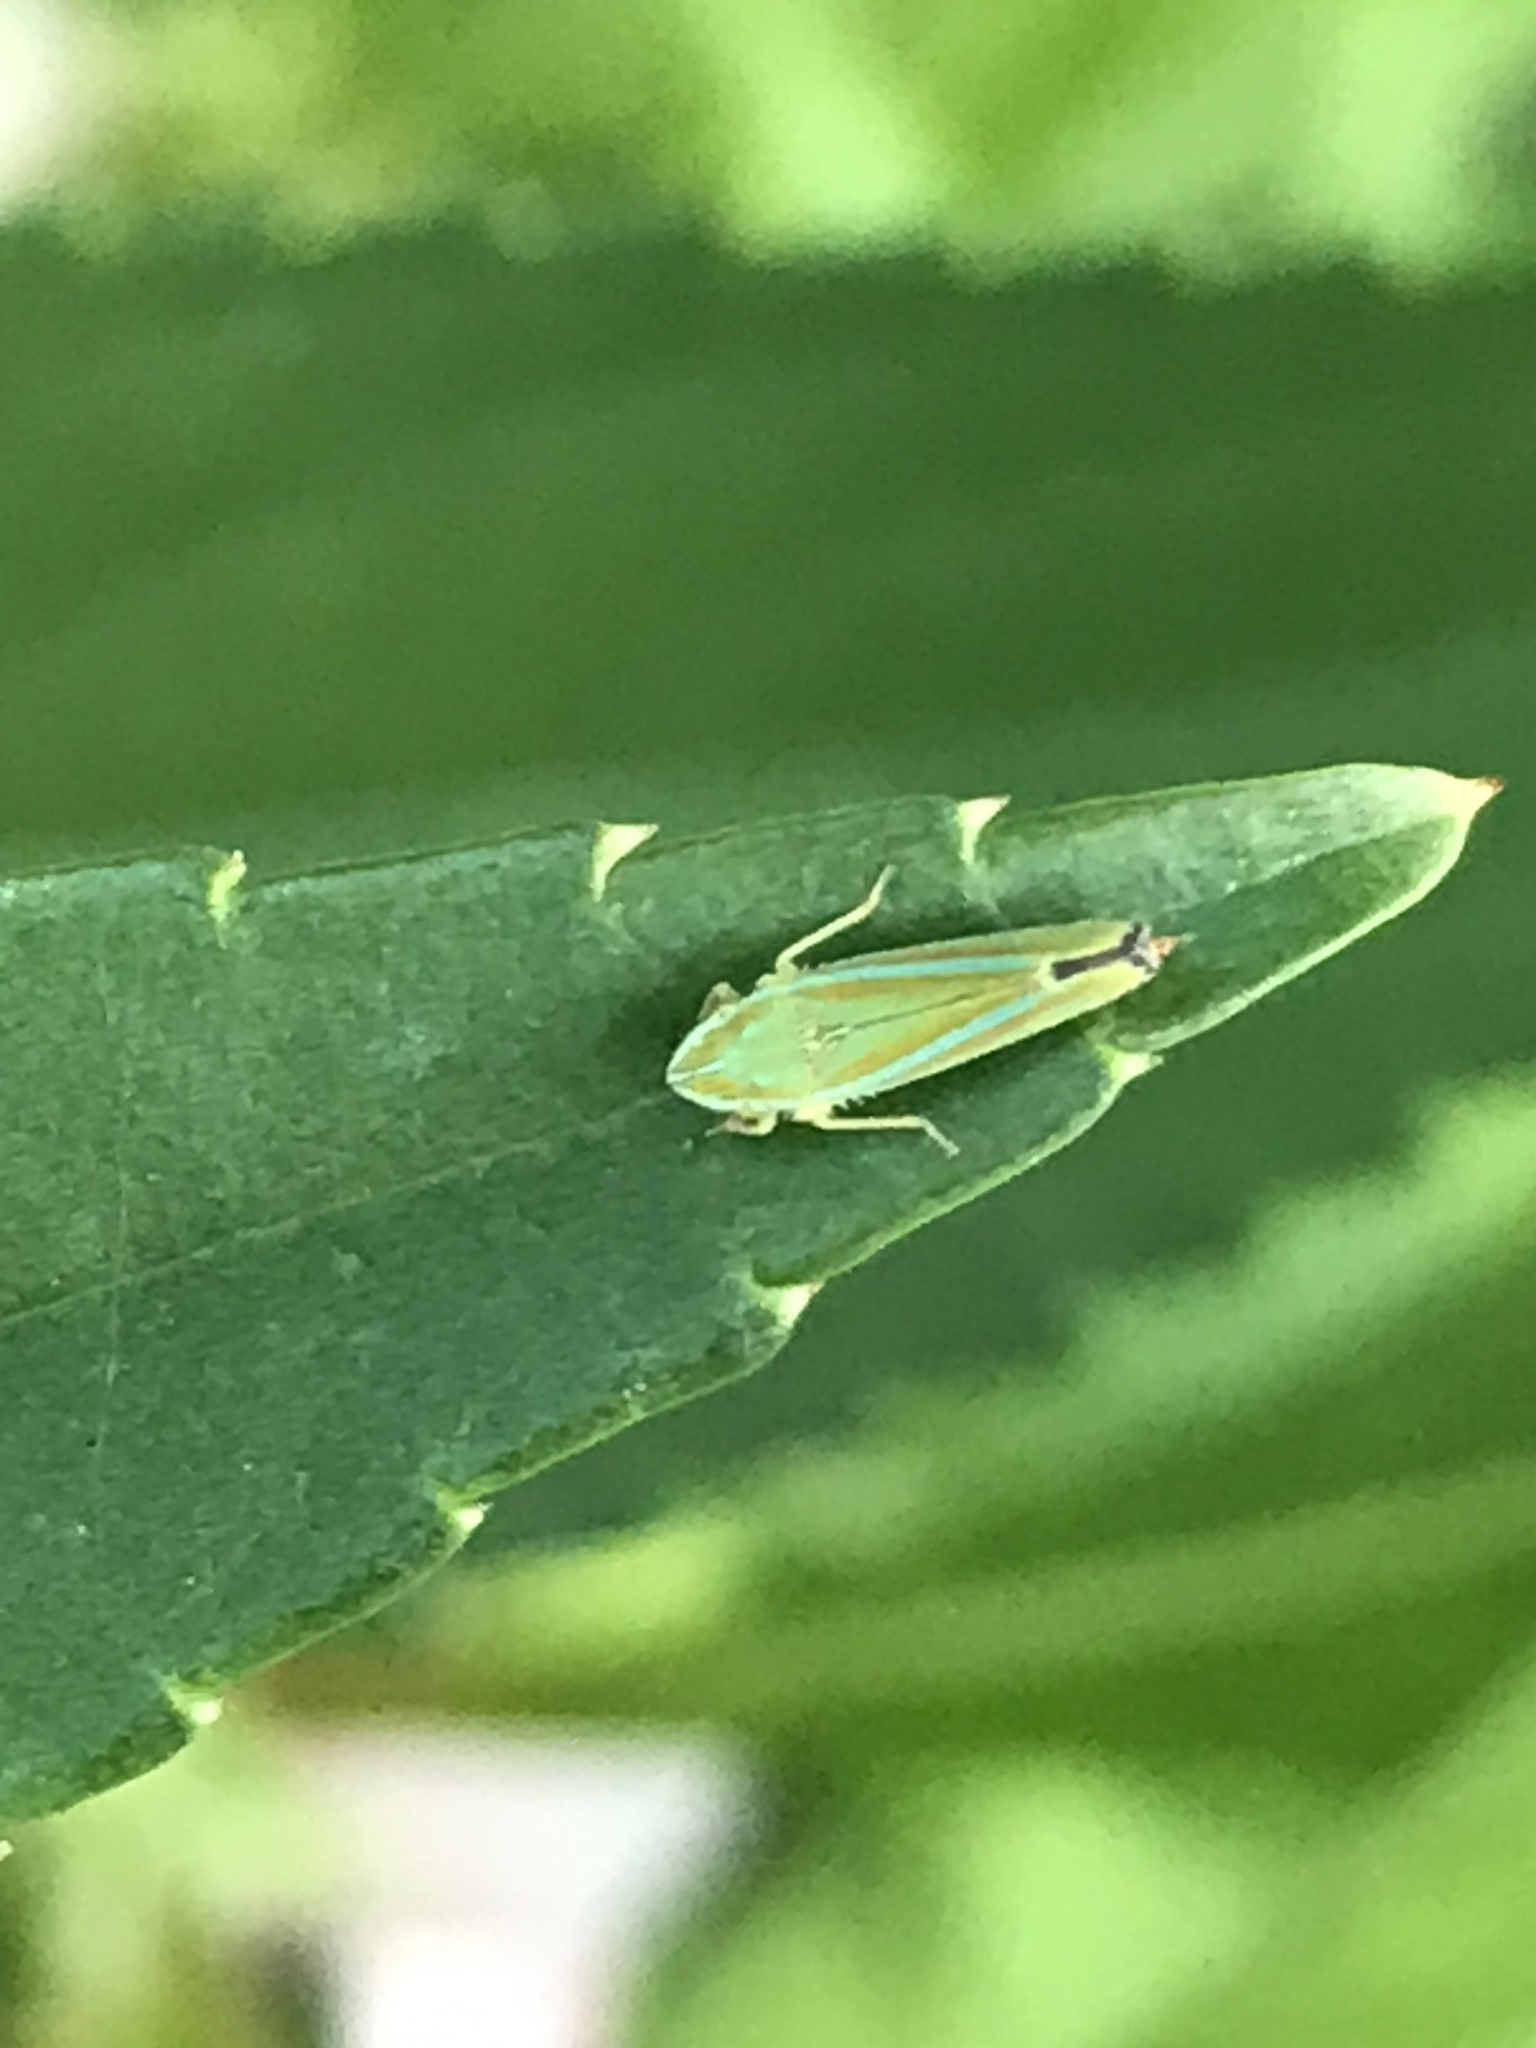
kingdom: Animalia
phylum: Arthropoda
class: Insecta
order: Hemiptera
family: Cicadellidae
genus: Graphocephala
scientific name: Graphocephala versuta
